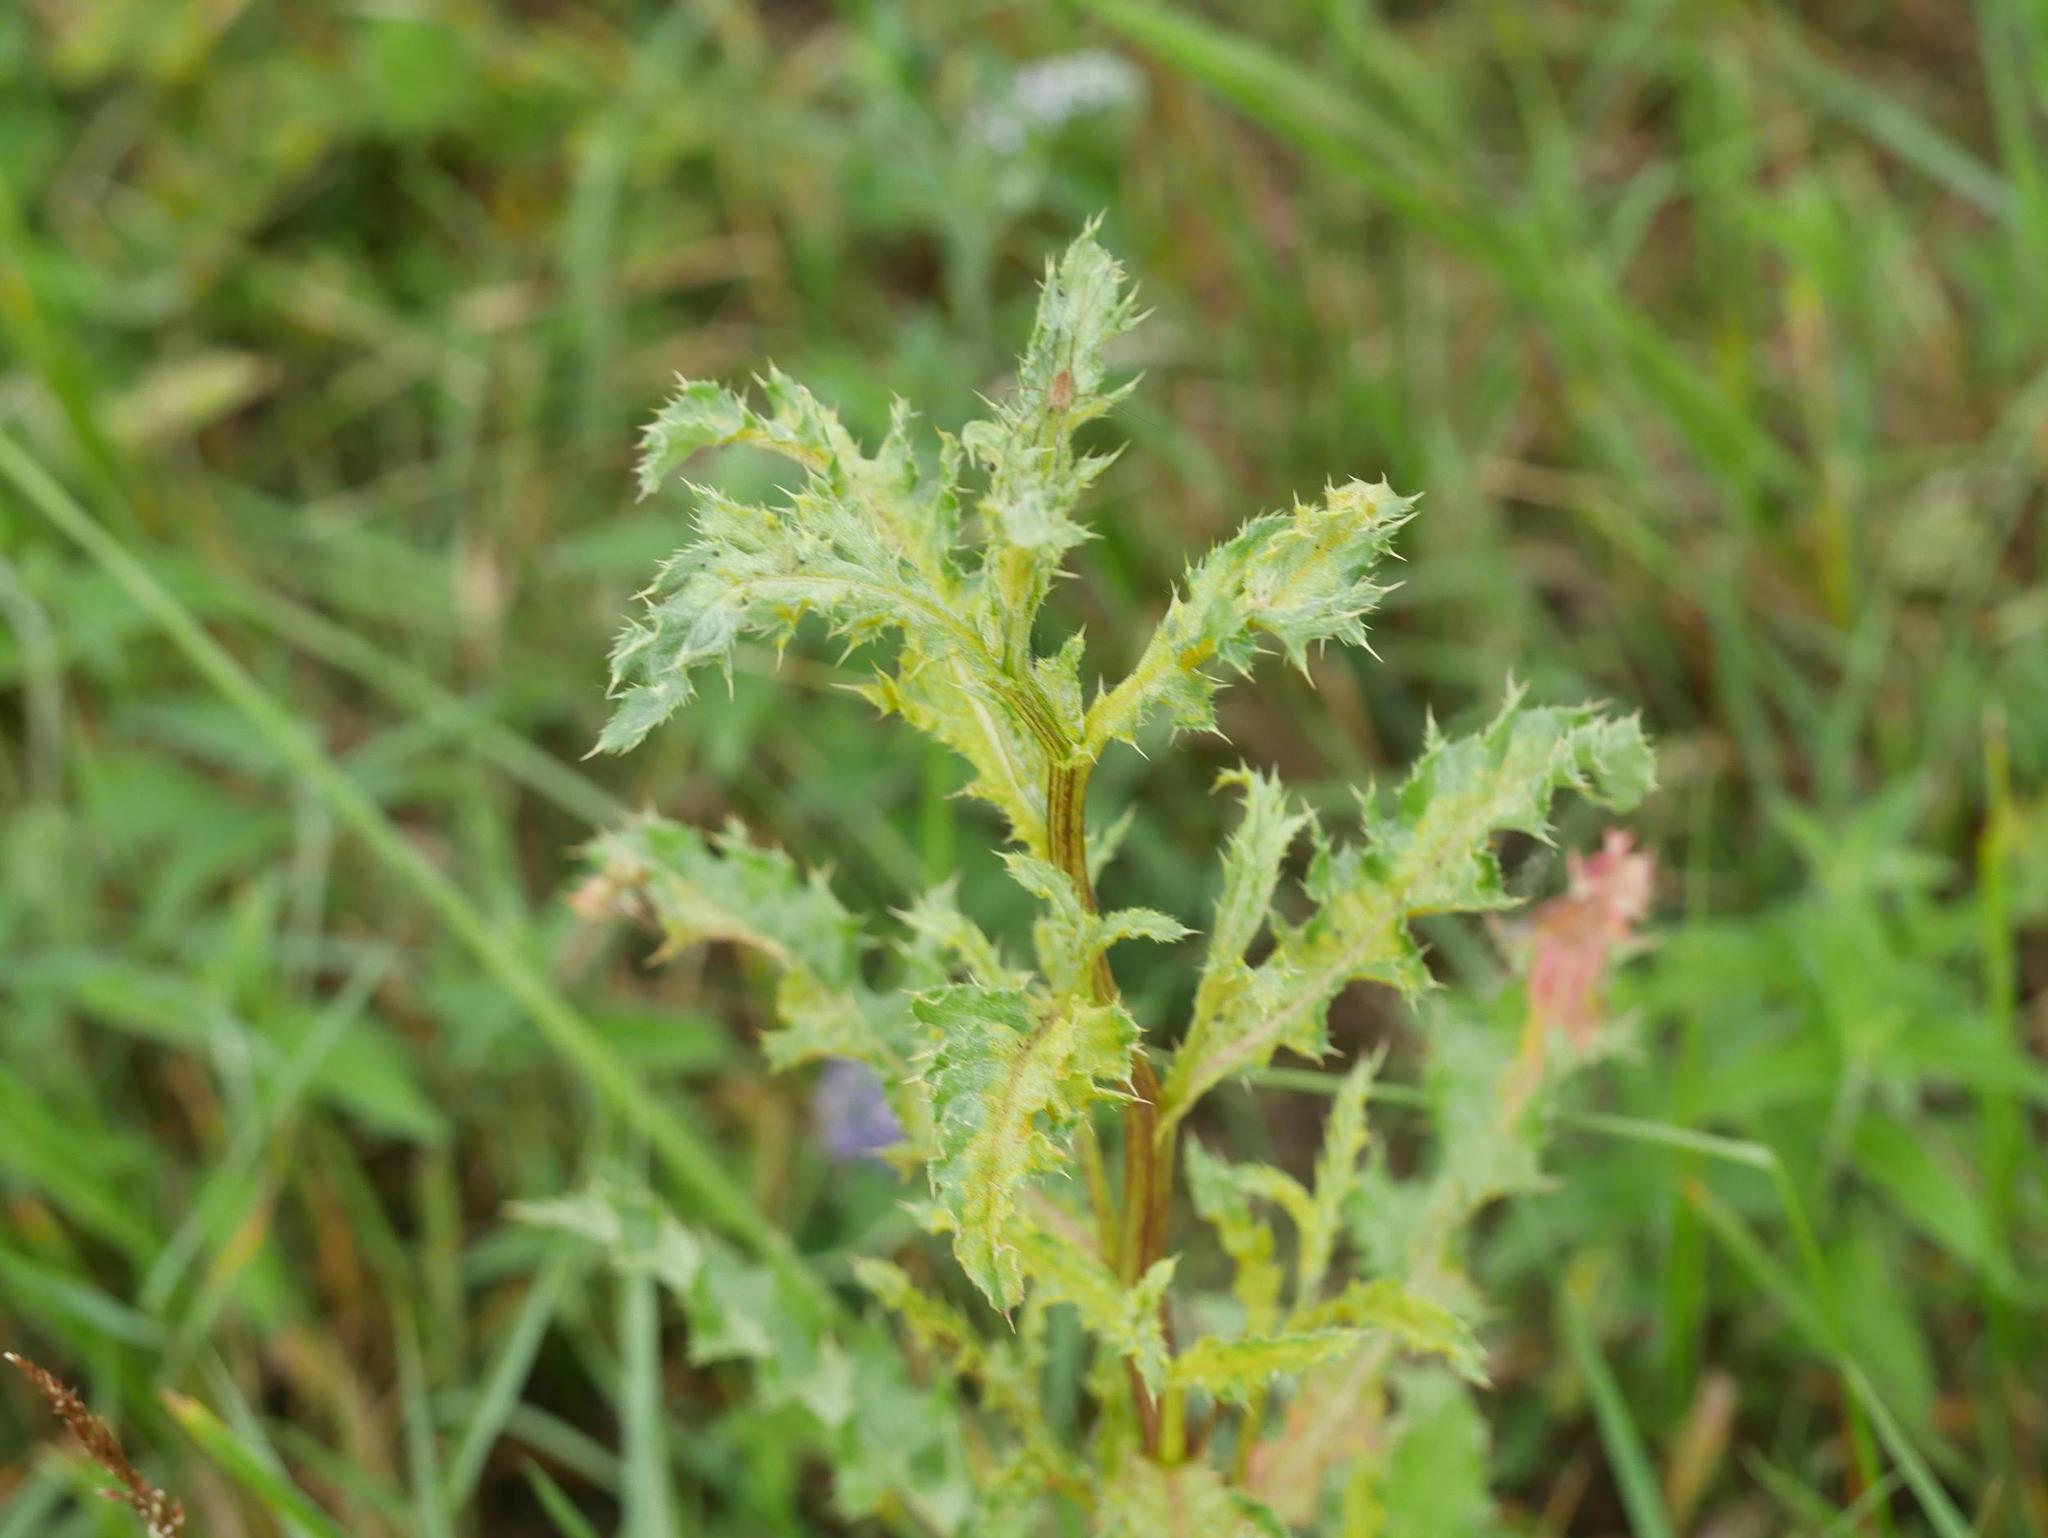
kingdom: Plantae
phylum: Tracheophyta
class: Magnoliopsida
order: Asterales
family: Asteraceae
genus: Cirsium
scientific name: Cirsium arvense
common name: Creeping thistle
